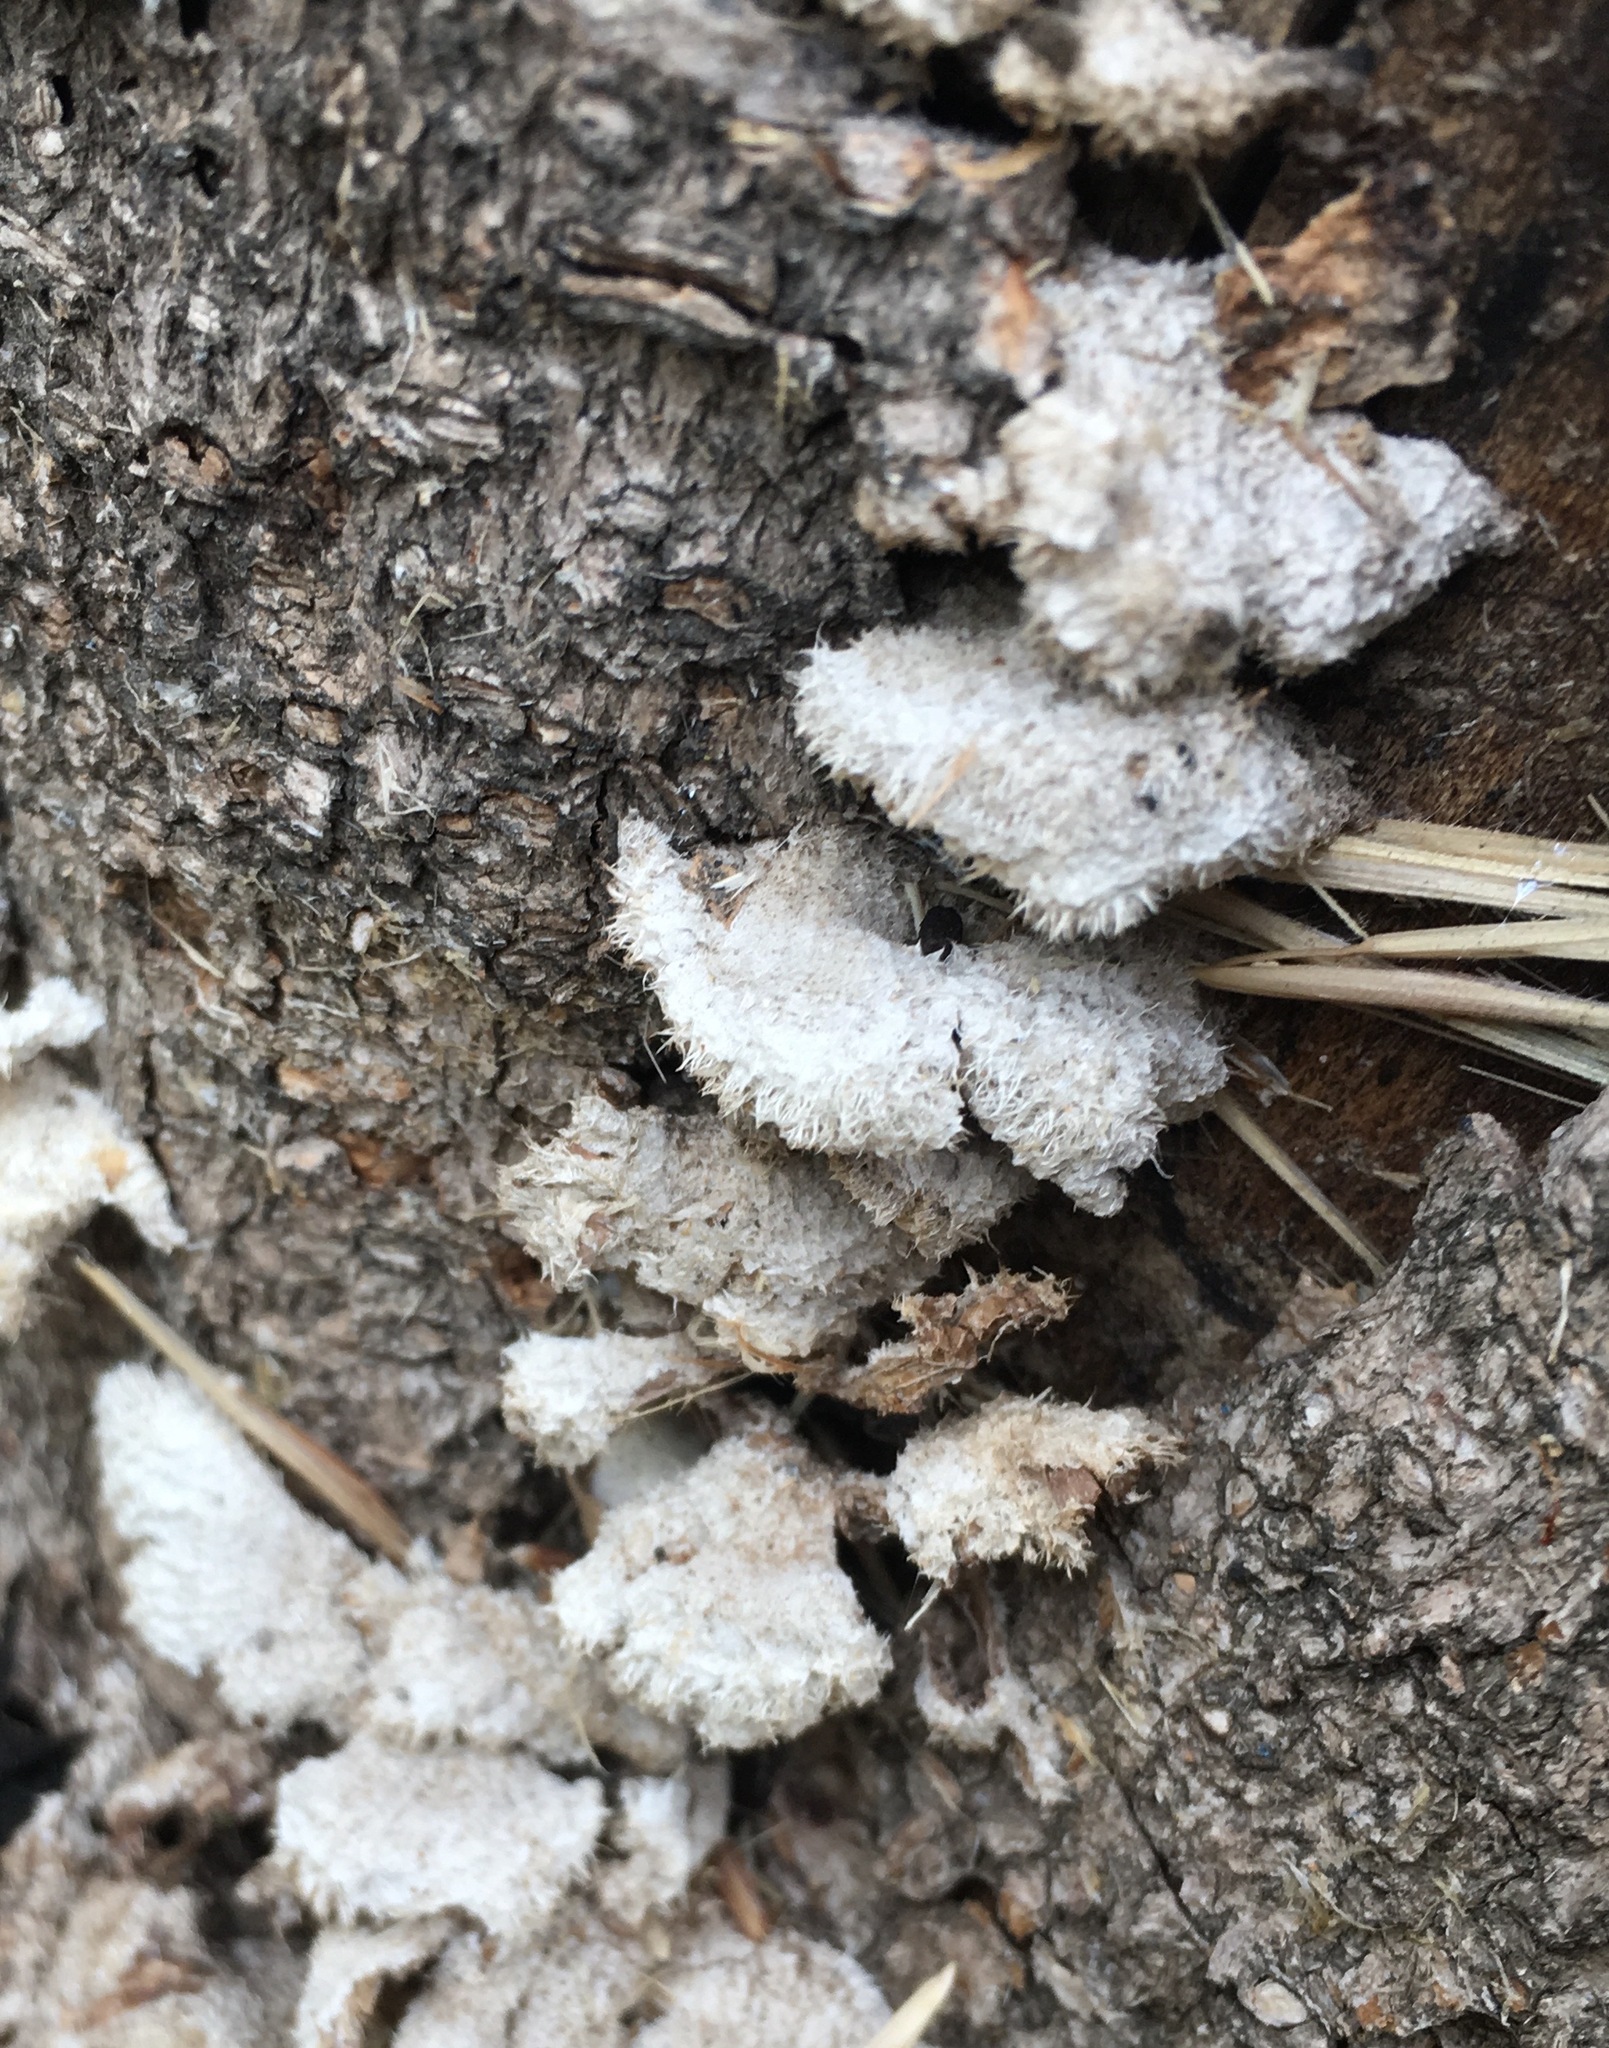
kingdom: Fungi
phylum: Basidiomycota
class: Agaricomycetes
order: Agaricales
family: Schizophyllaceae
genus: Schizophyllum
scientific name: Schizophyllum commune
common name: Common porecrust
